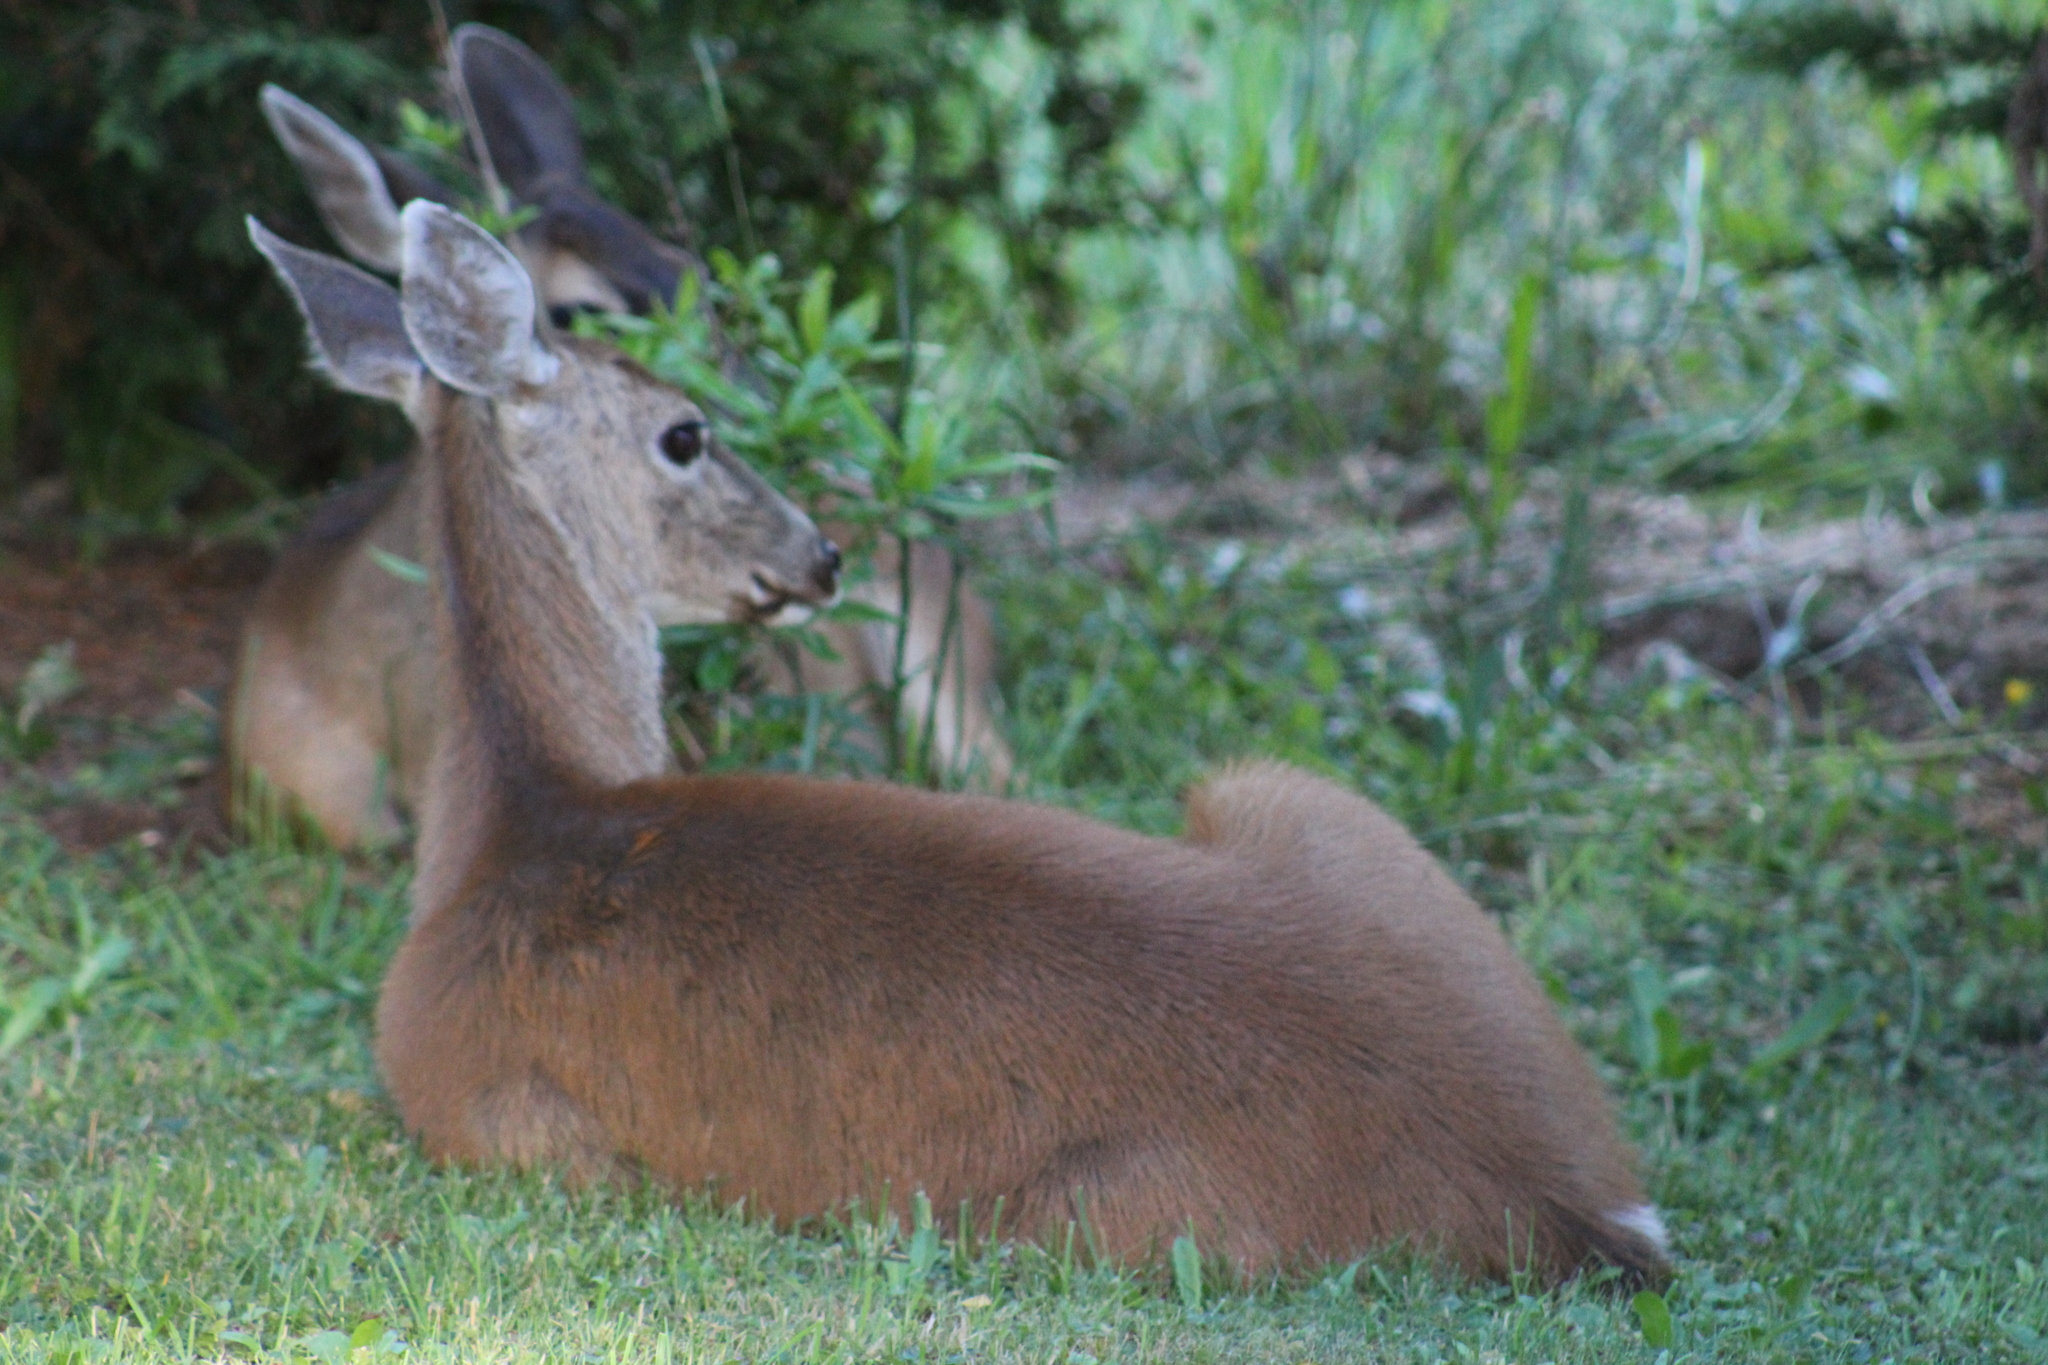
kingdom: Animalia
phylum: Chordata
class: Mammalia
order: Artiodactyla
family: Cervidae
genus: Odocoileus
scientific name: Odocoileus hemionus
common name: Mule deer
